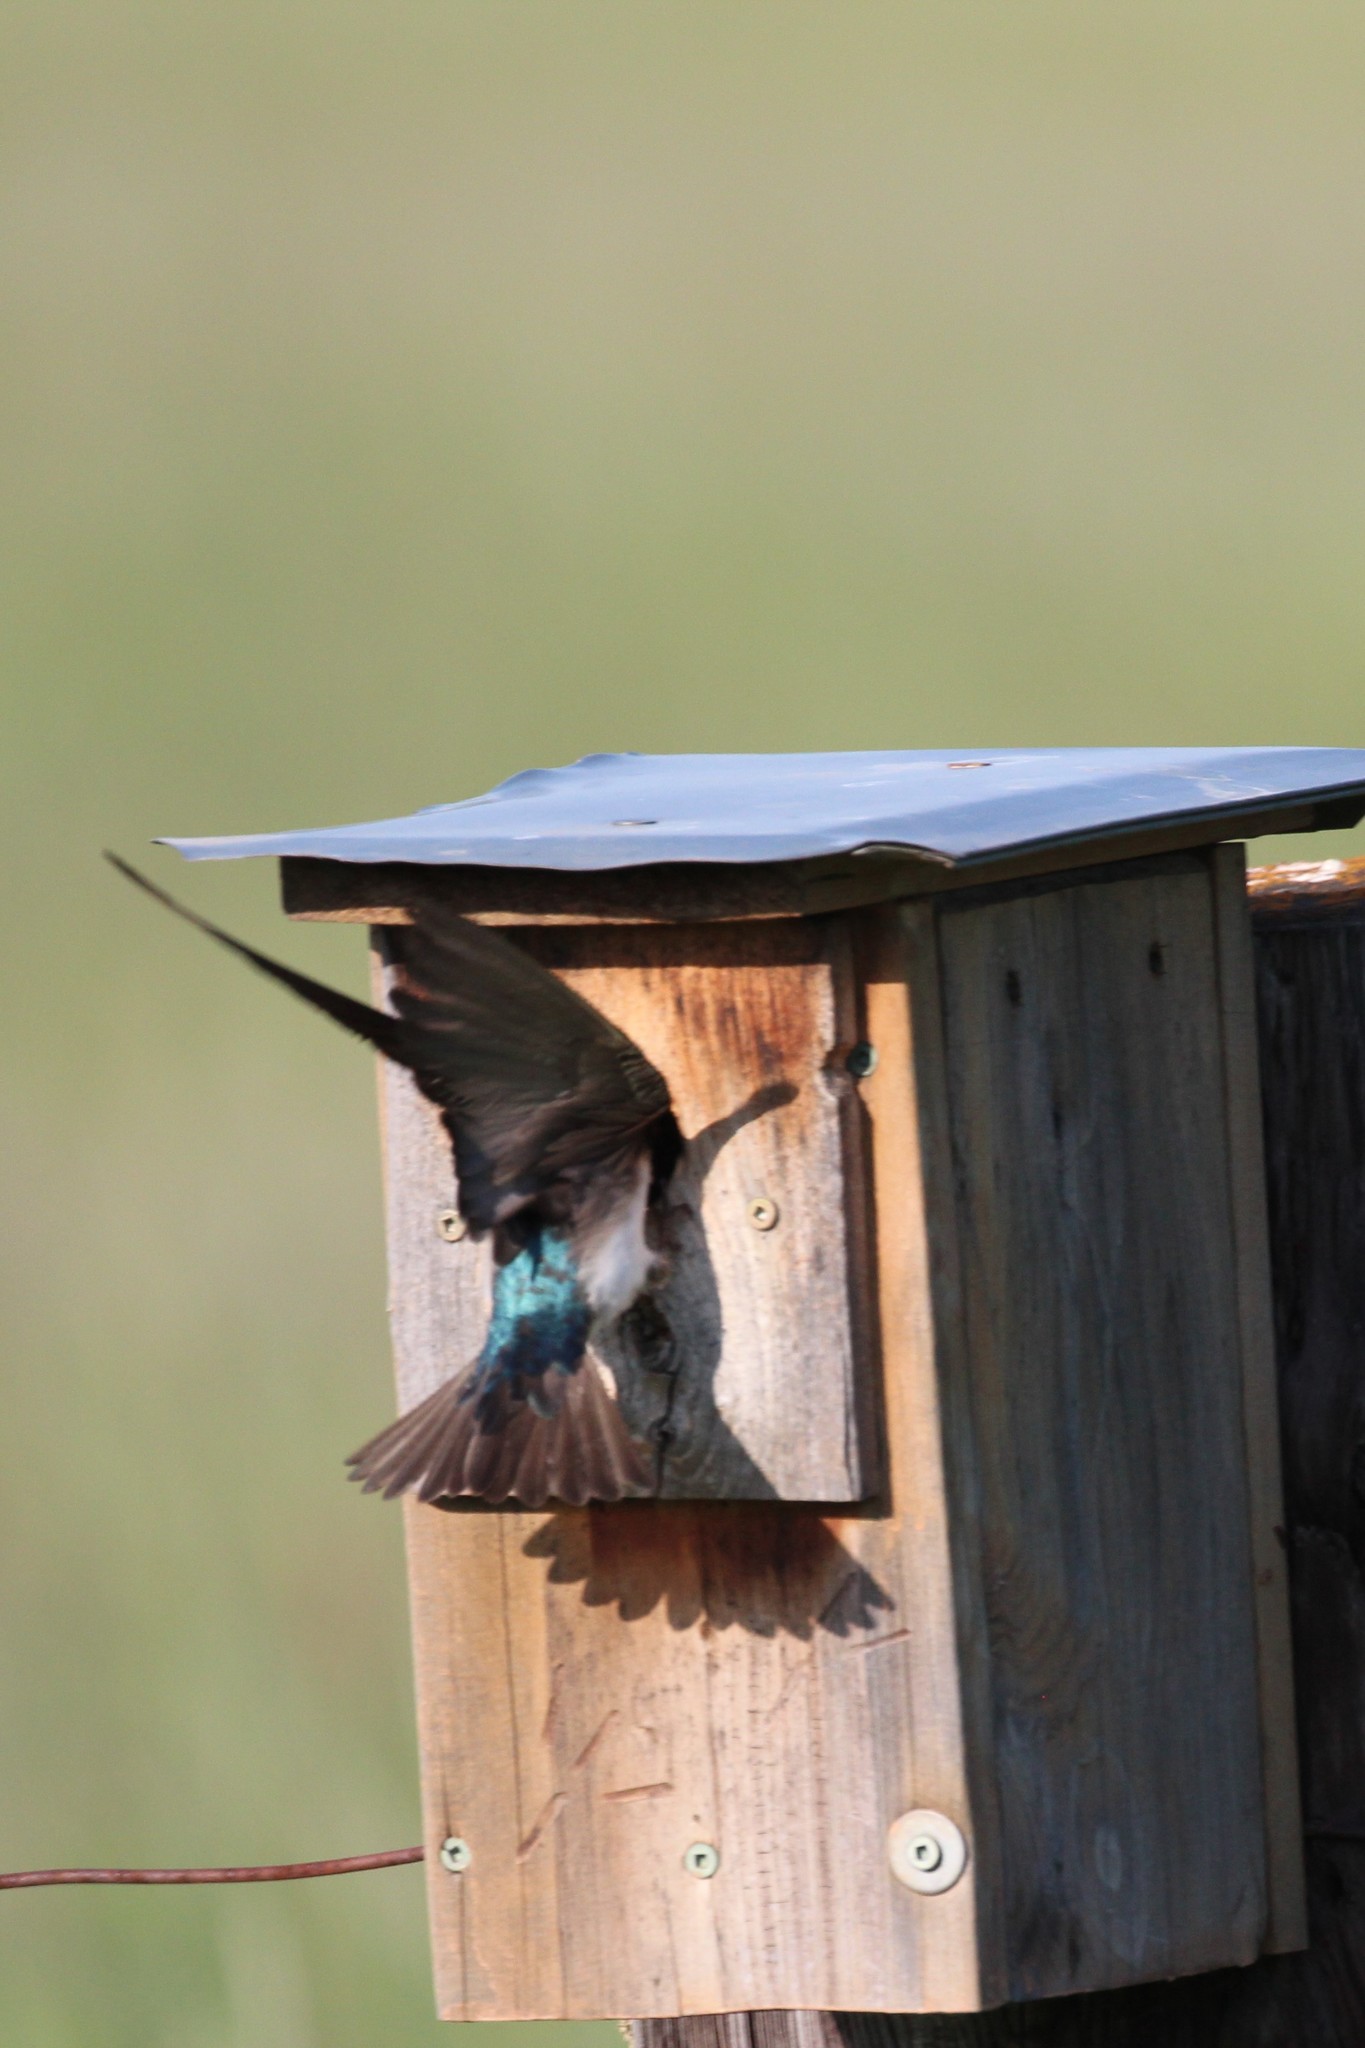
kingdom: Animalia
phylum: Chordata
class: Aves
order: Passeriformes
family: Hirundinidae
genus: Tachycineta
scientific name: Tachycineta bicolor
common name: Tree swallow
